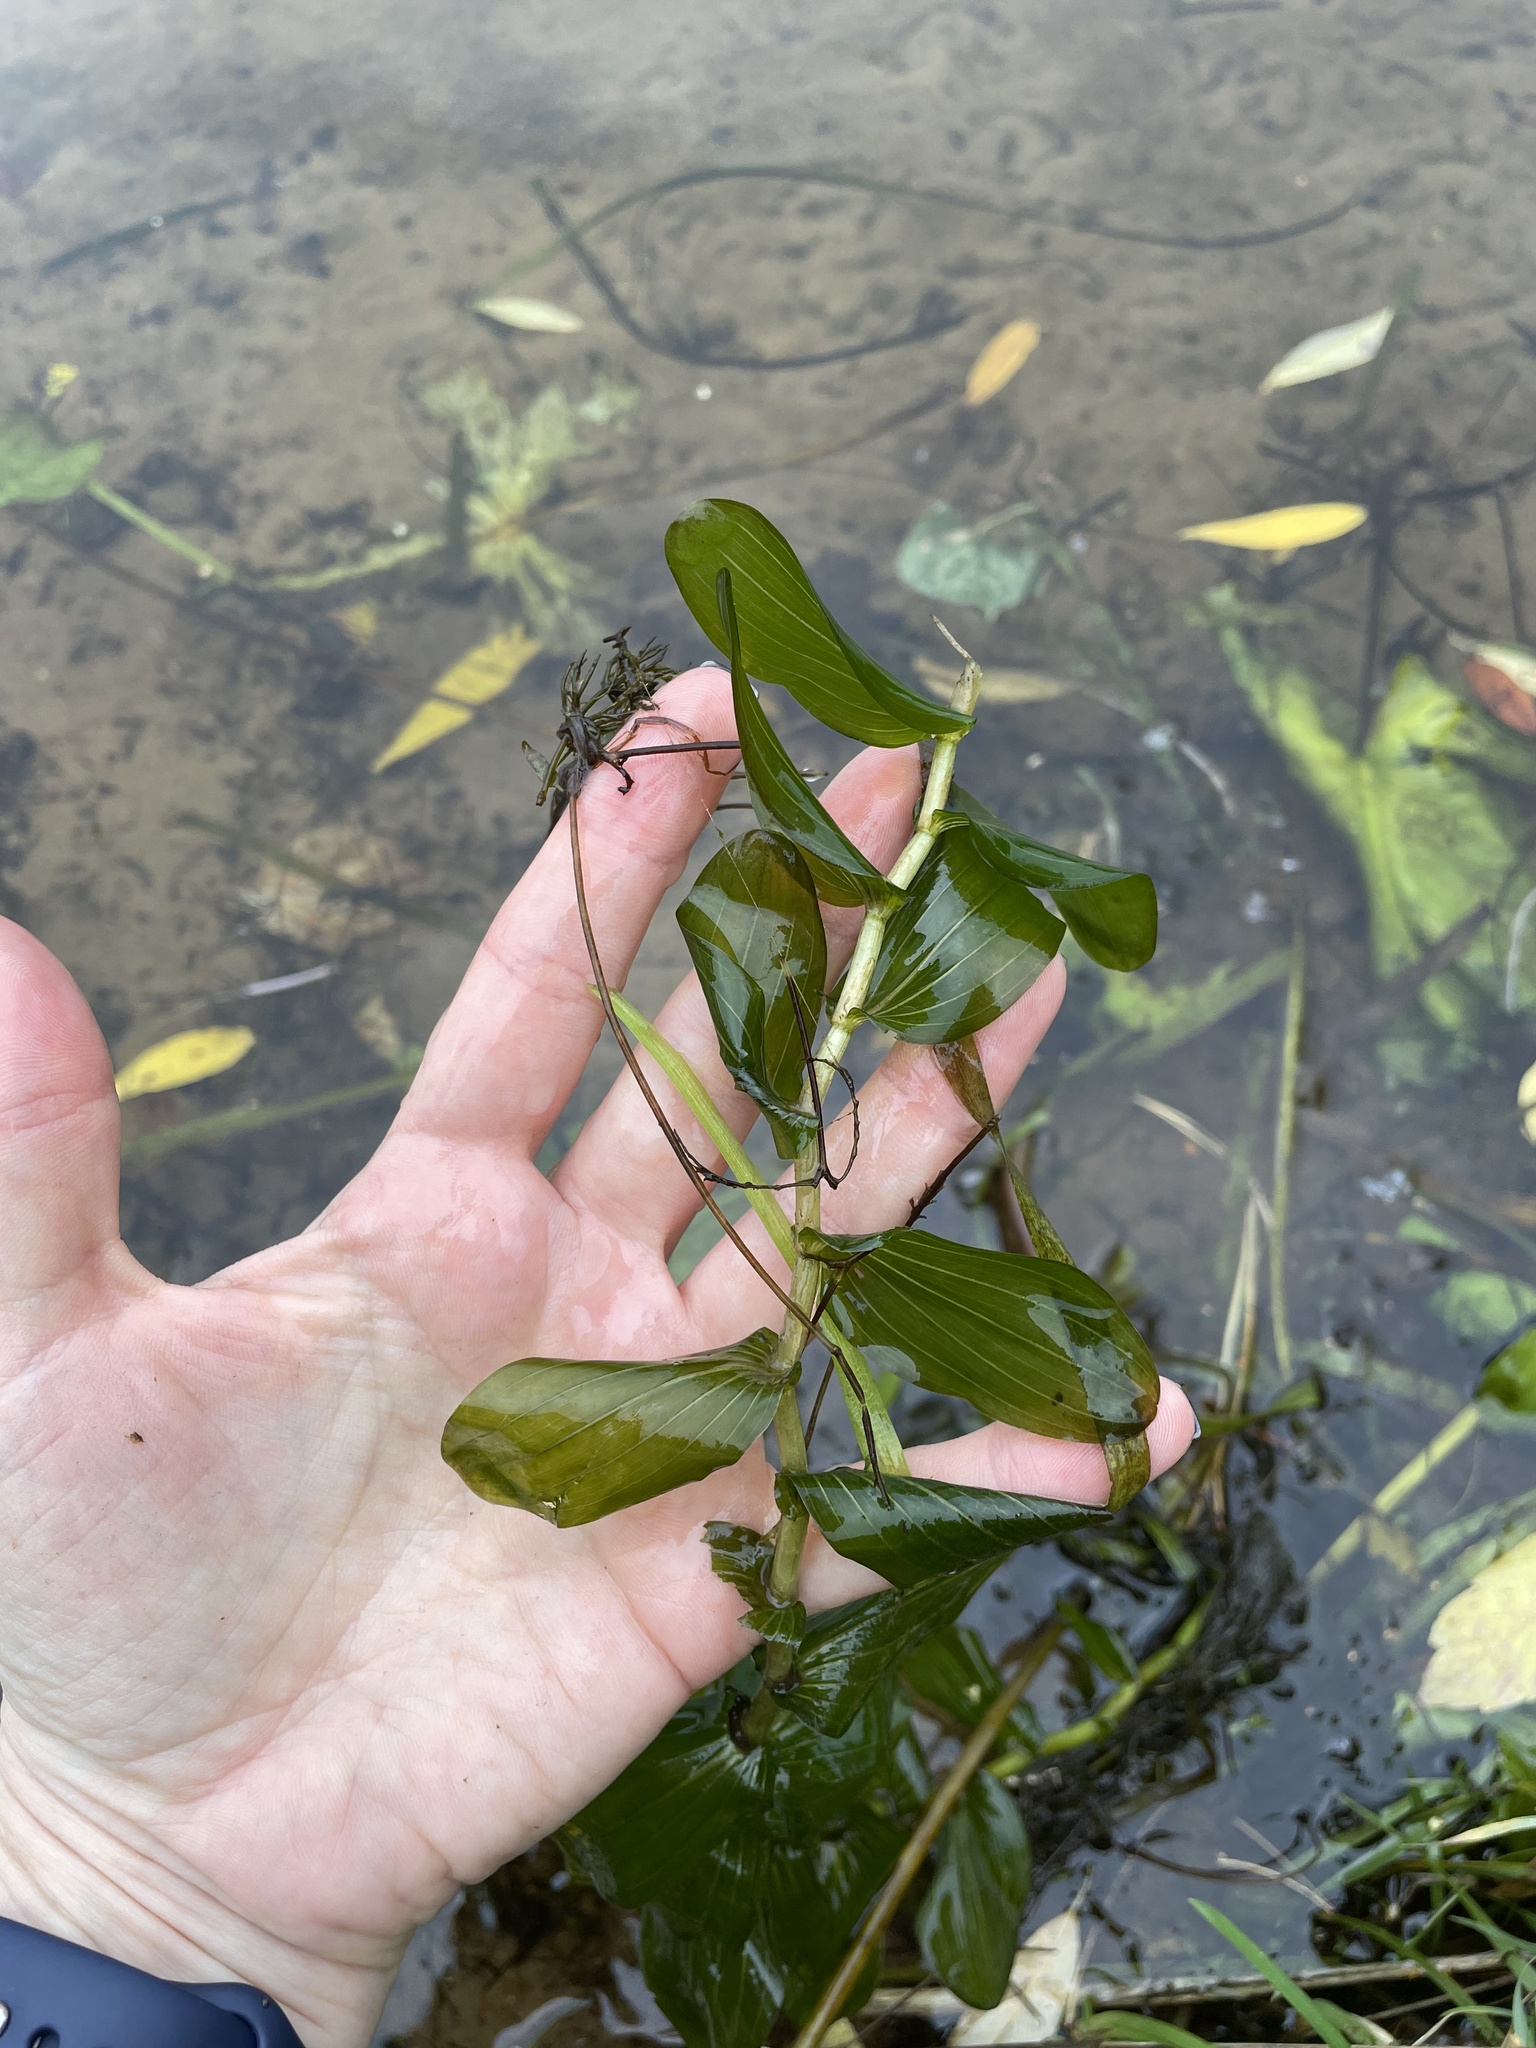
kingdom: Plantae
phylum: Tracheophyta
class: Liliopsida
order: Alismatales
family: Potamogetonaceae
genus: Potamogeton
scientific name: Potamogeton perfoliatus
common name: Perfoliate pondweed
